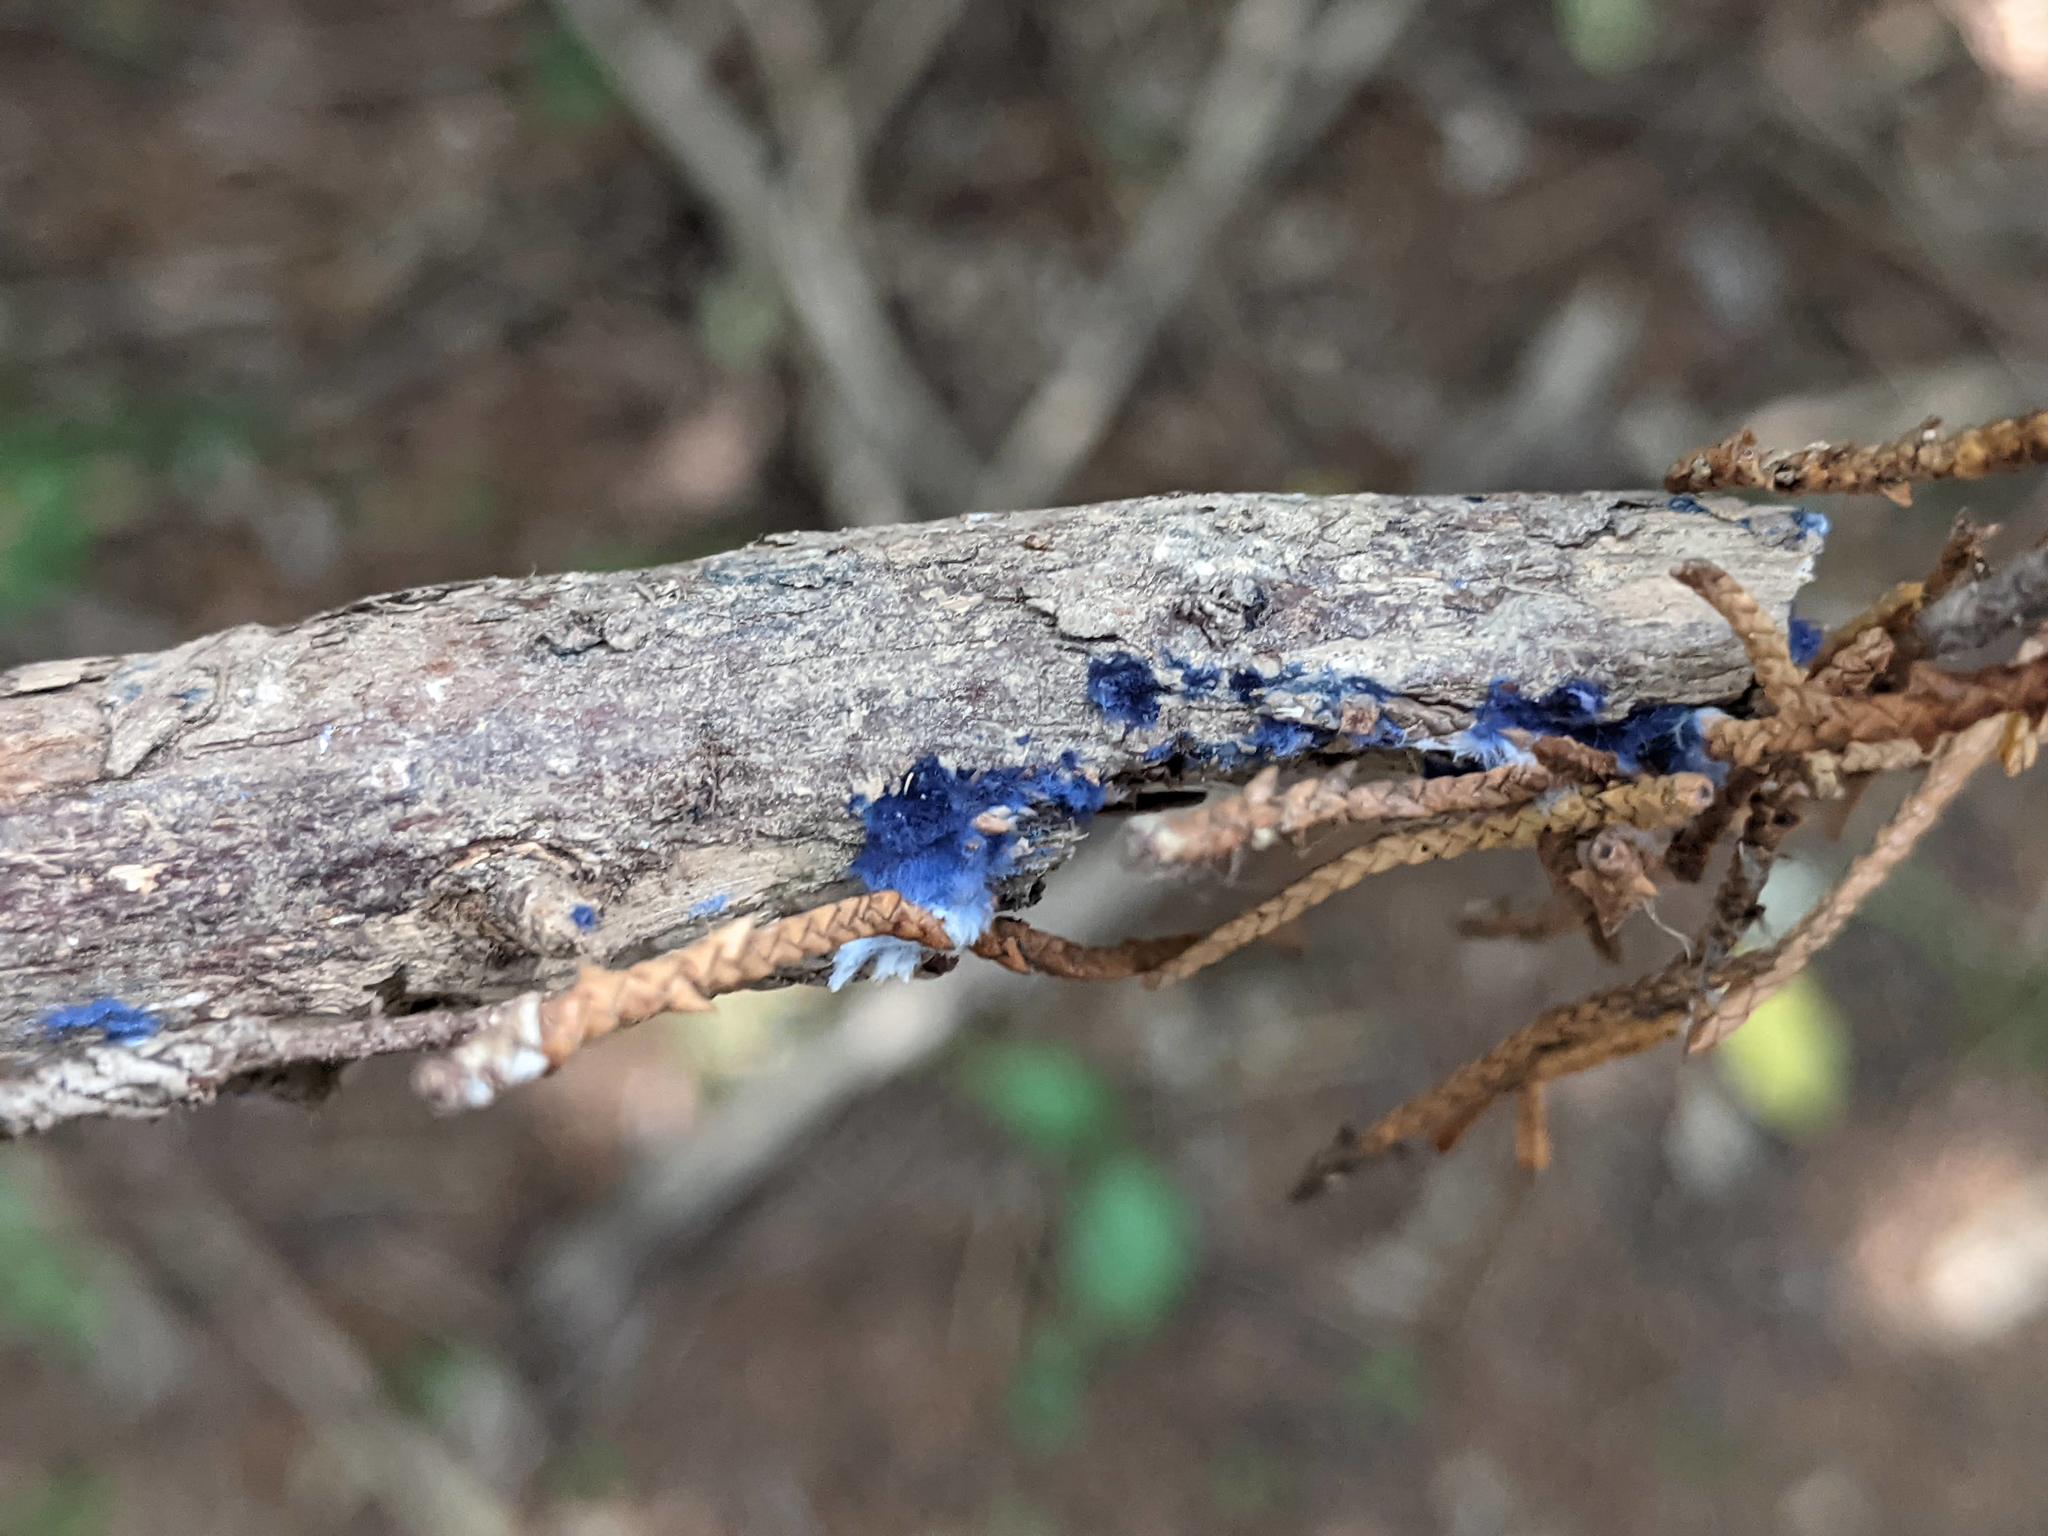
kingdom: Fungi
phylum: Basidiomycota
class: Agaricomycetes
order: Polyporales
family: Phanerochaetaceae
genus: Terana
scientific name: Terana coerulea
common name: Cobalt crust
